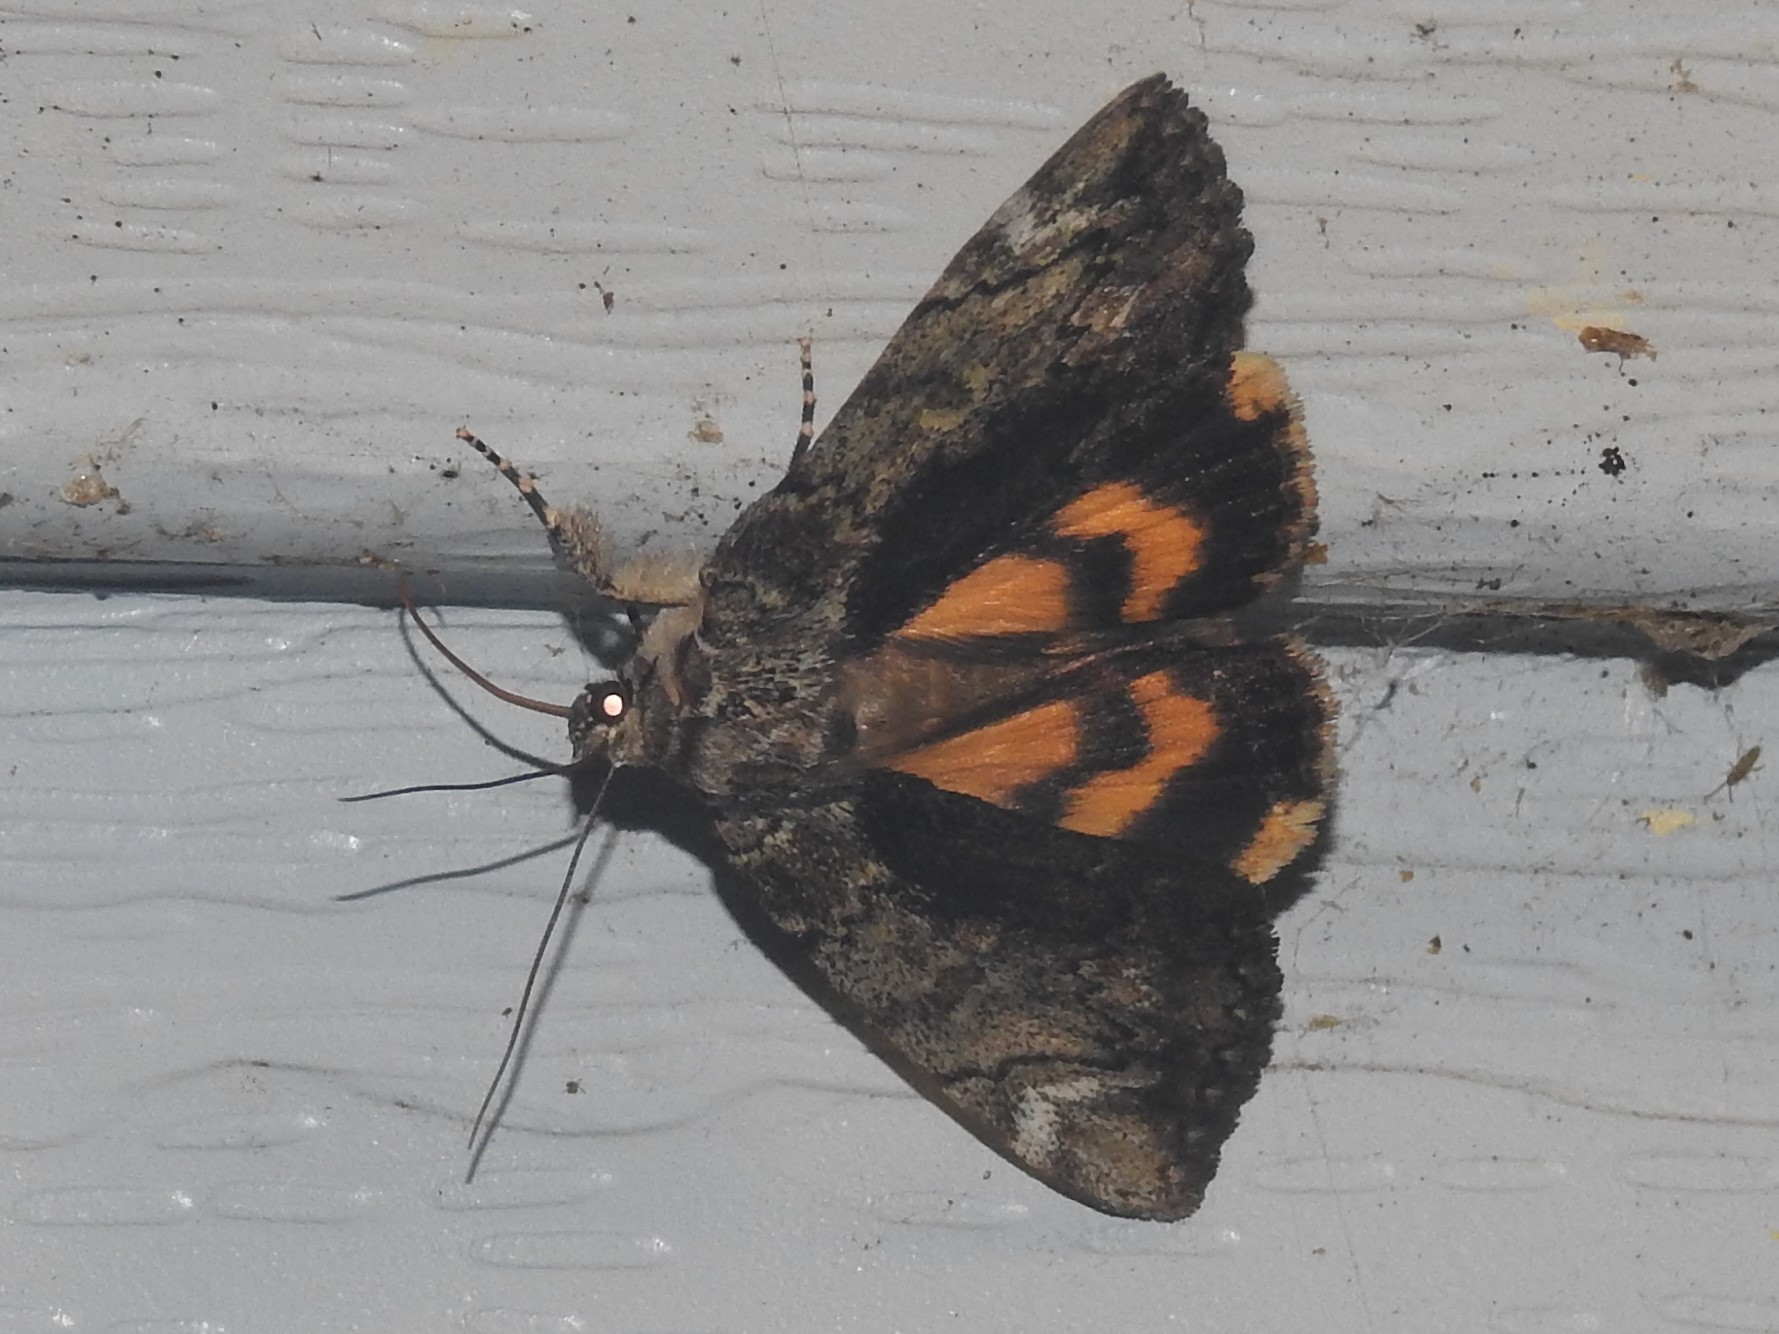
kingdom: Animalia
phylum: Arthropoda
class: Insecta
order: Lepidoptera
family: Erebidae
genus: Catocala
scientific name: Catocala minuta
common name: Little underwing
